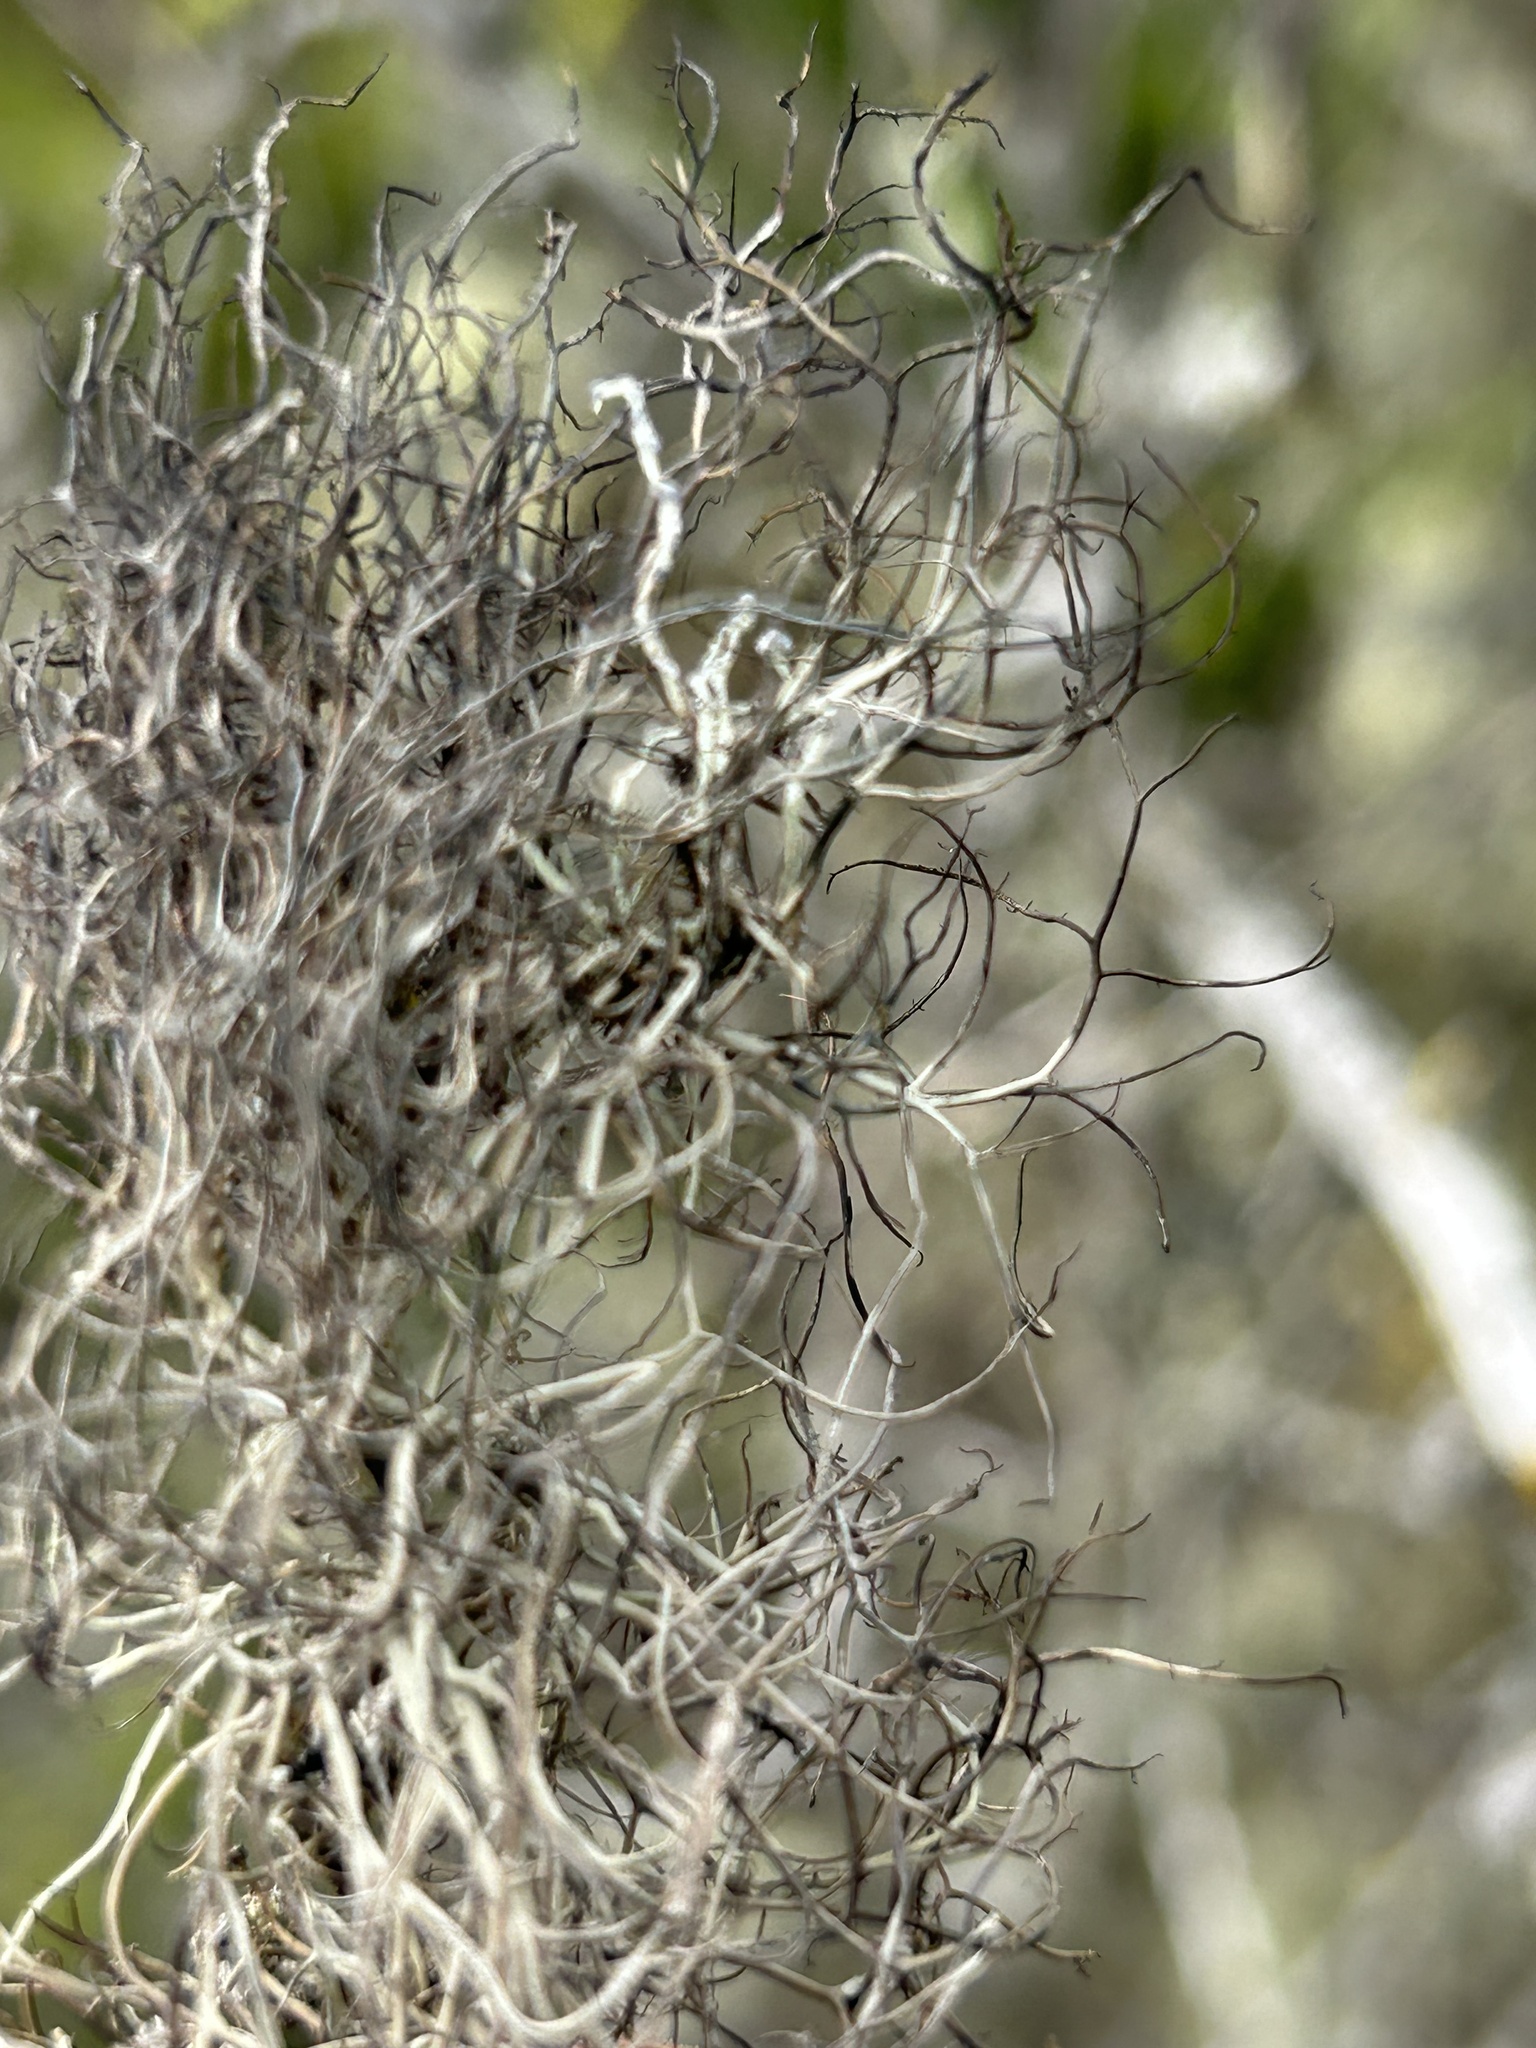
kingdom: Fungi
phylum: Ascomycota
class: Lecanoromycetes
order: Lecanorales
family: Parmeliaceae
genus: Sulcaria
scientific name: Sulcaria isidiifera
